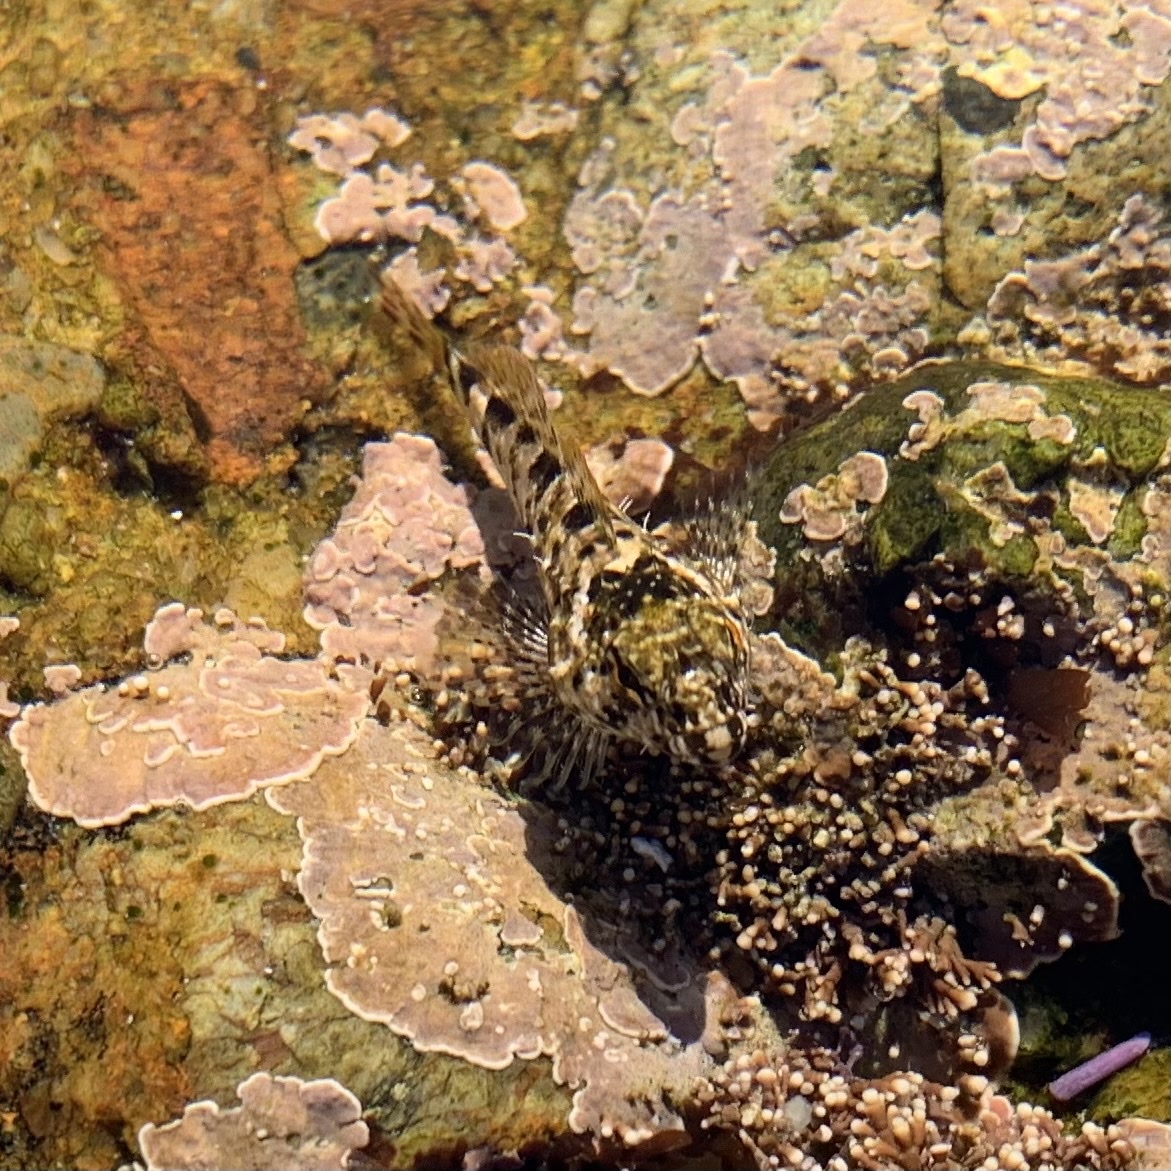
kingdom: Animalia
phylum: Chordata
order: Scorpaeniformes
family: Cottidae
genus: Clinocottus
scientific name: Clinocottus analis
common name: Woolly sculpin
